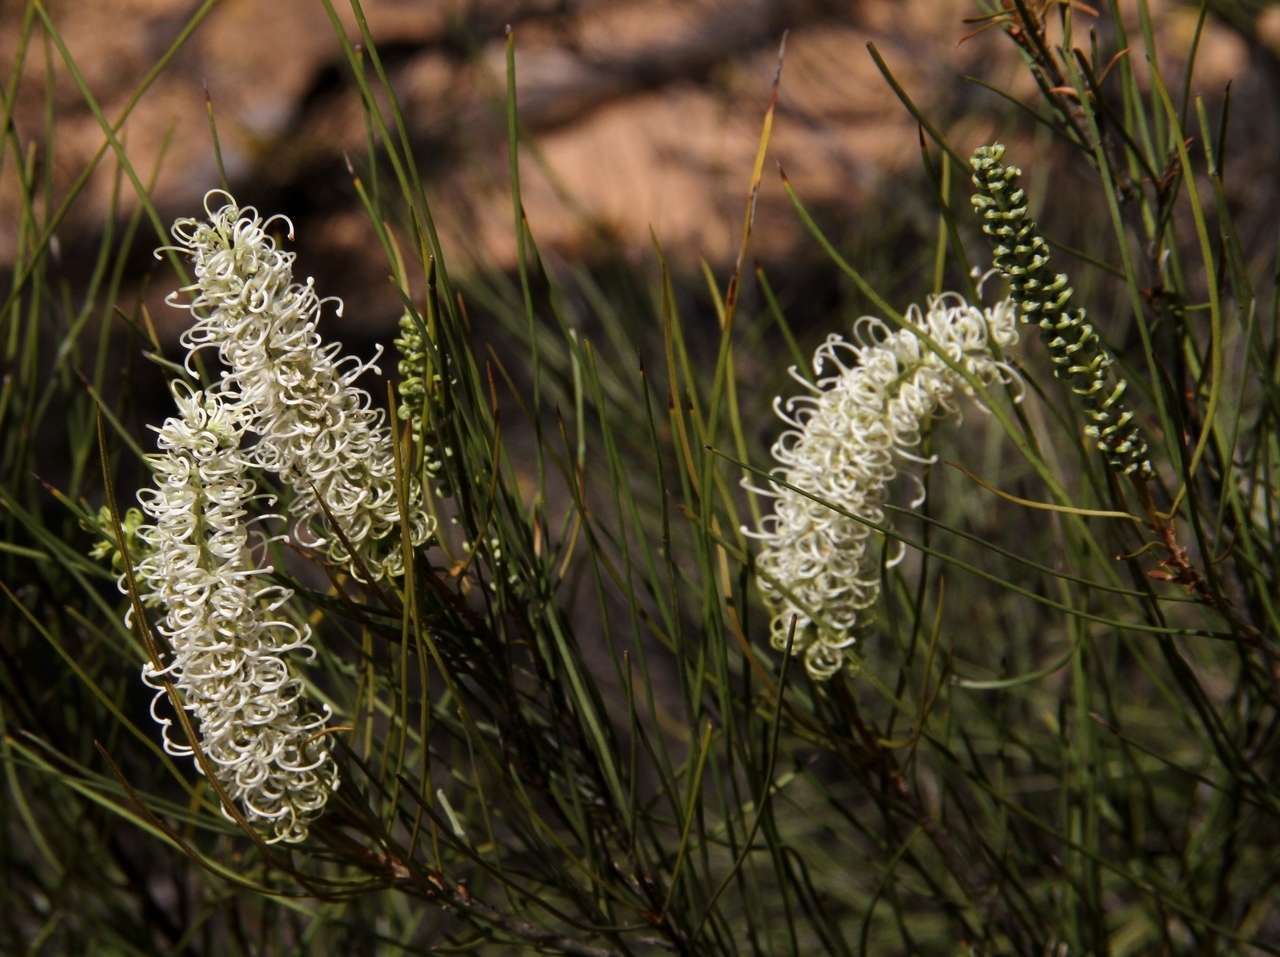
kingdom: Plantae
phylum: Tracheophyta
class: Magnoliopsida
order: Proteales
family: Proteaceae
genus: Grevillea
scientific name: Grevillea pterosperma
